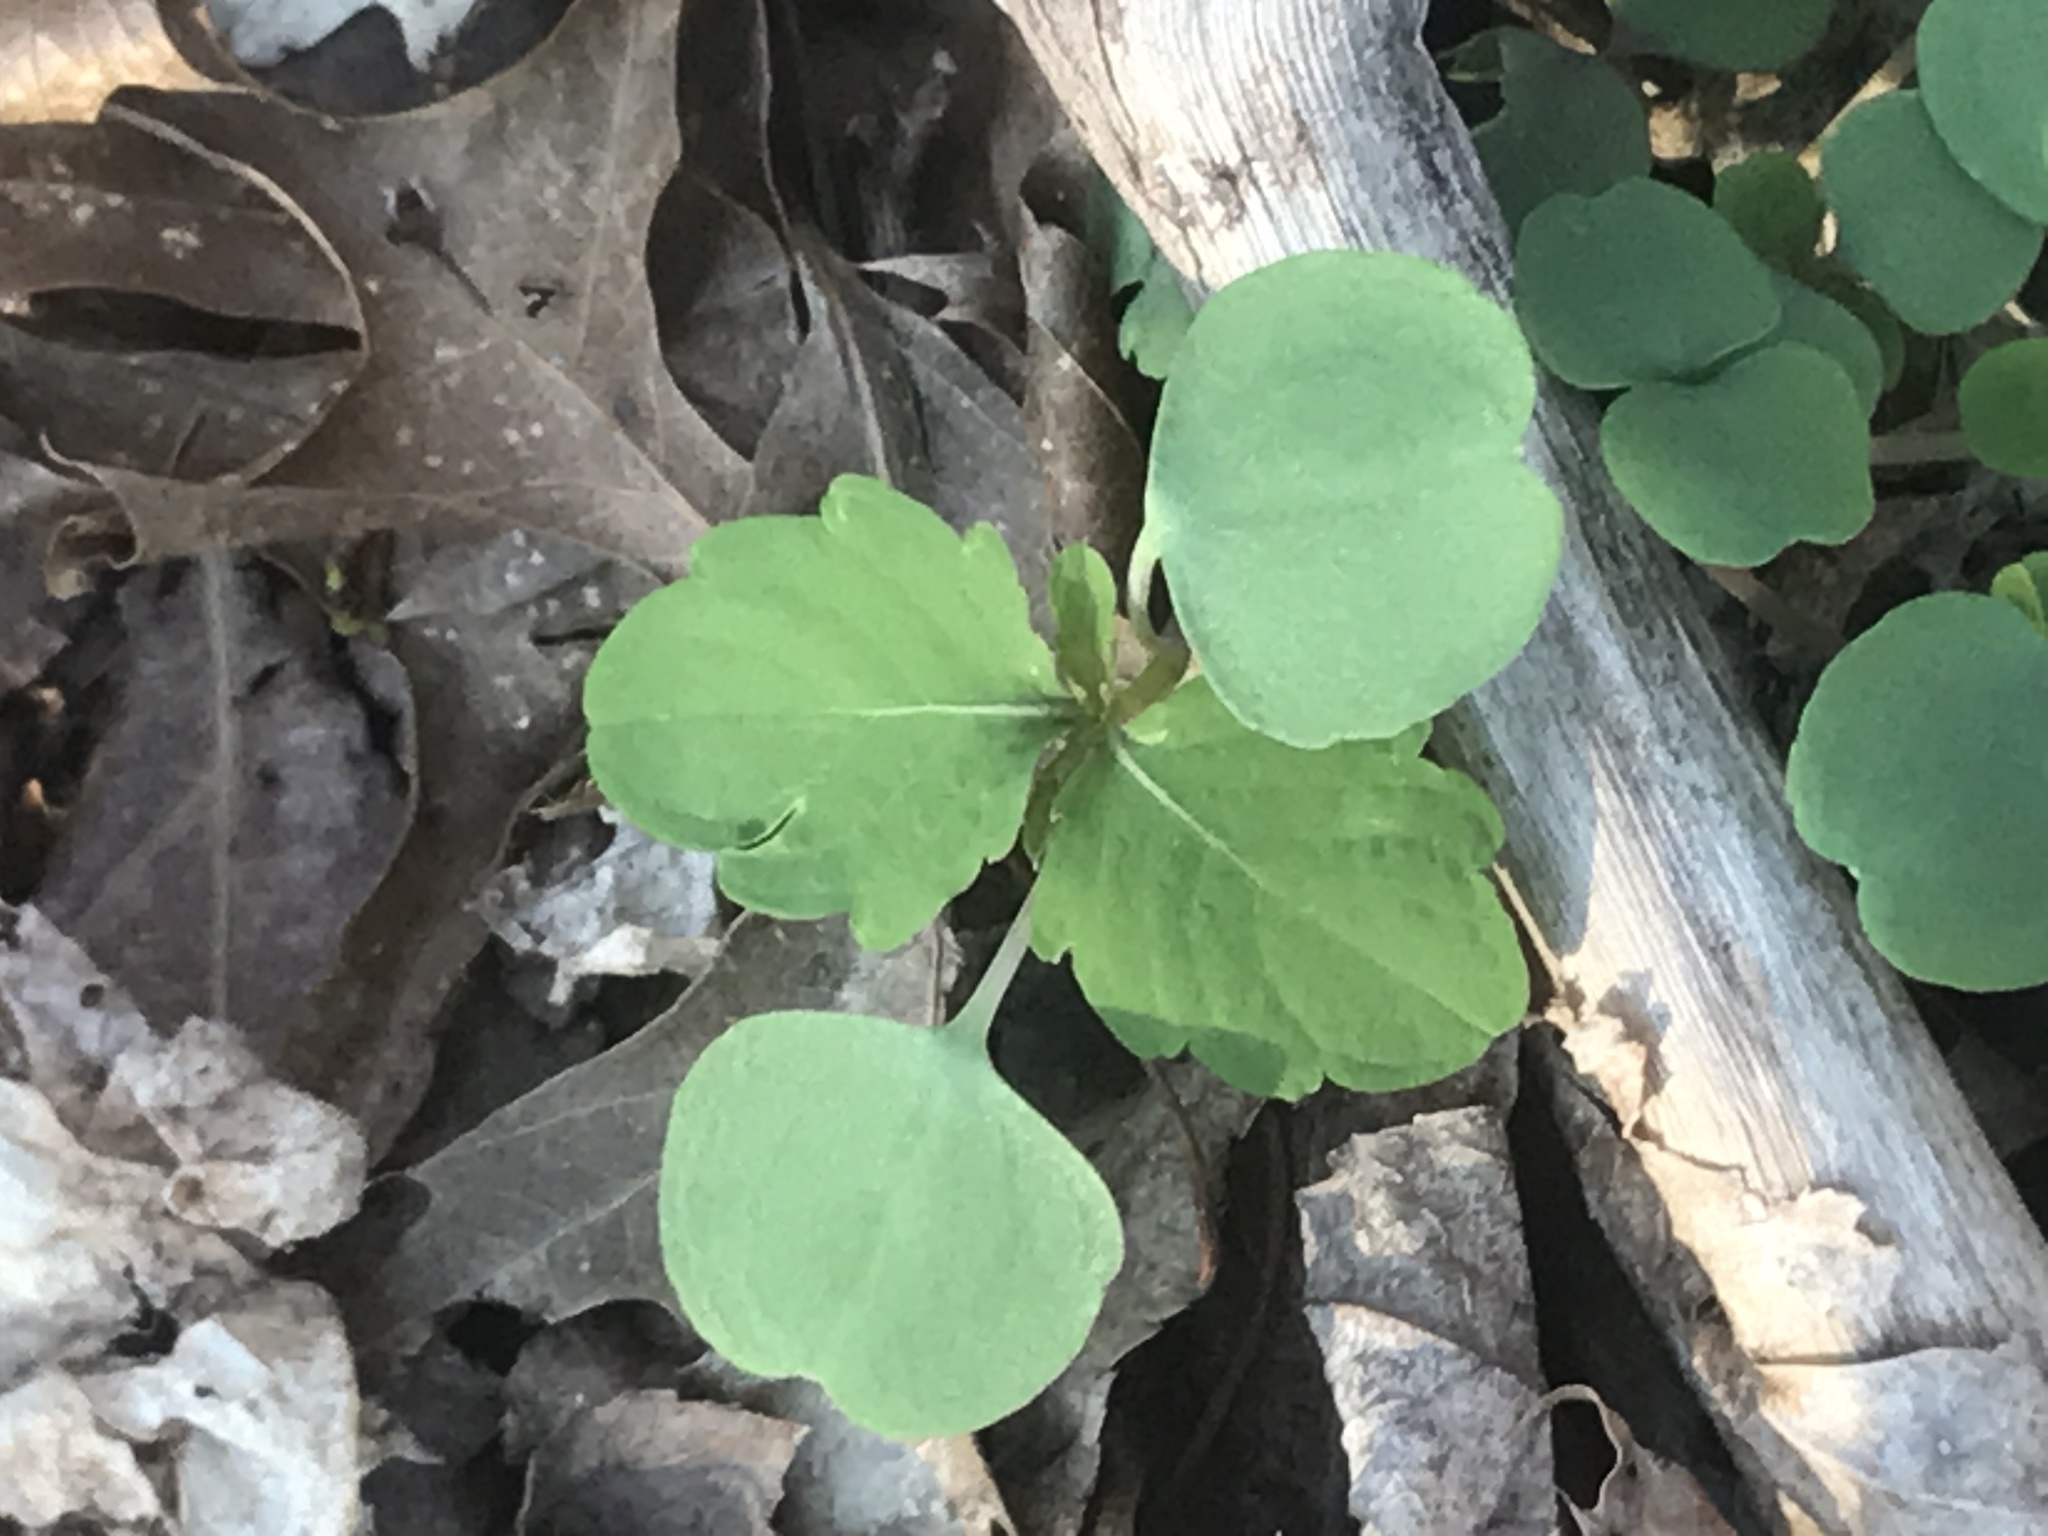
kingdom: Plantae
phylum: Tracheophyta
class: Magnoliopsida
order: Ericales
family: Balsaminaceae
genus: Impatiens
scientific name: Impatiens capensis
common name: Orange balsam
